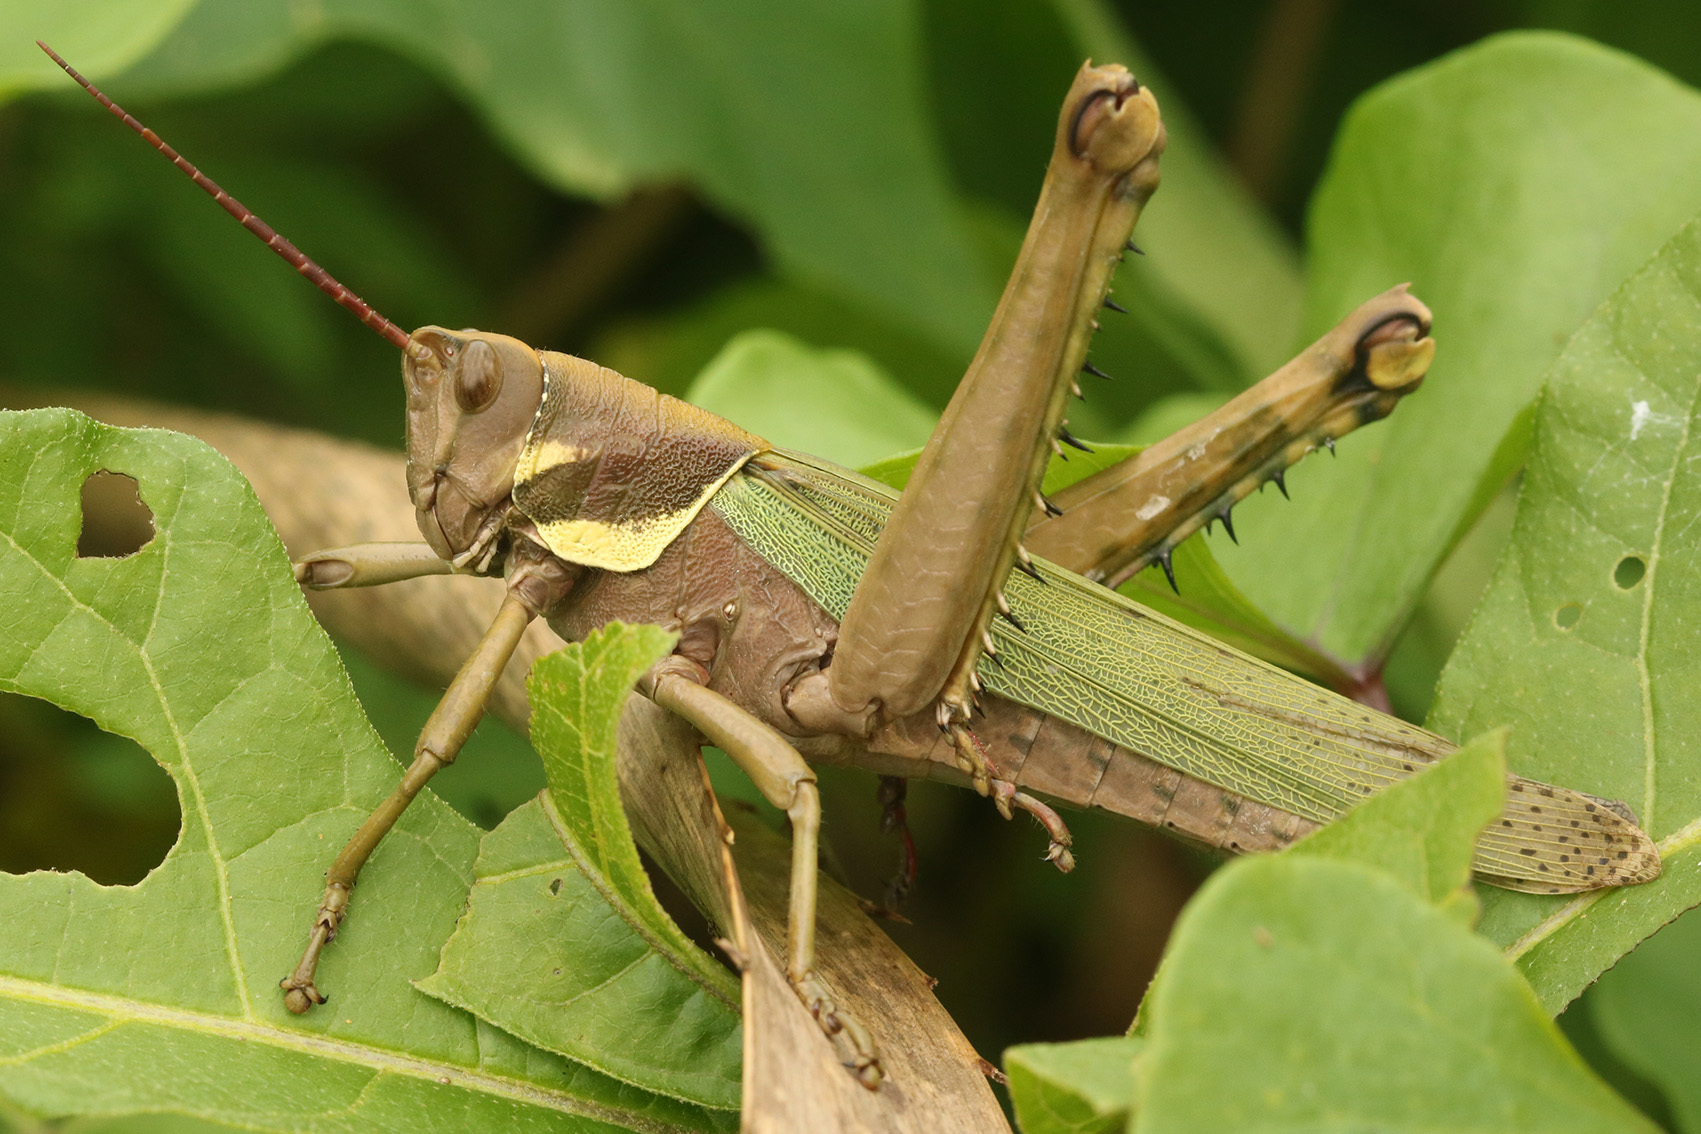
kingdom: Animalia
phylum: Arthropoda
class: Insecta
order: Orthoptera
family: Romaleidae
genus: Coryacris
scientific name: Coryacris angustipennis
